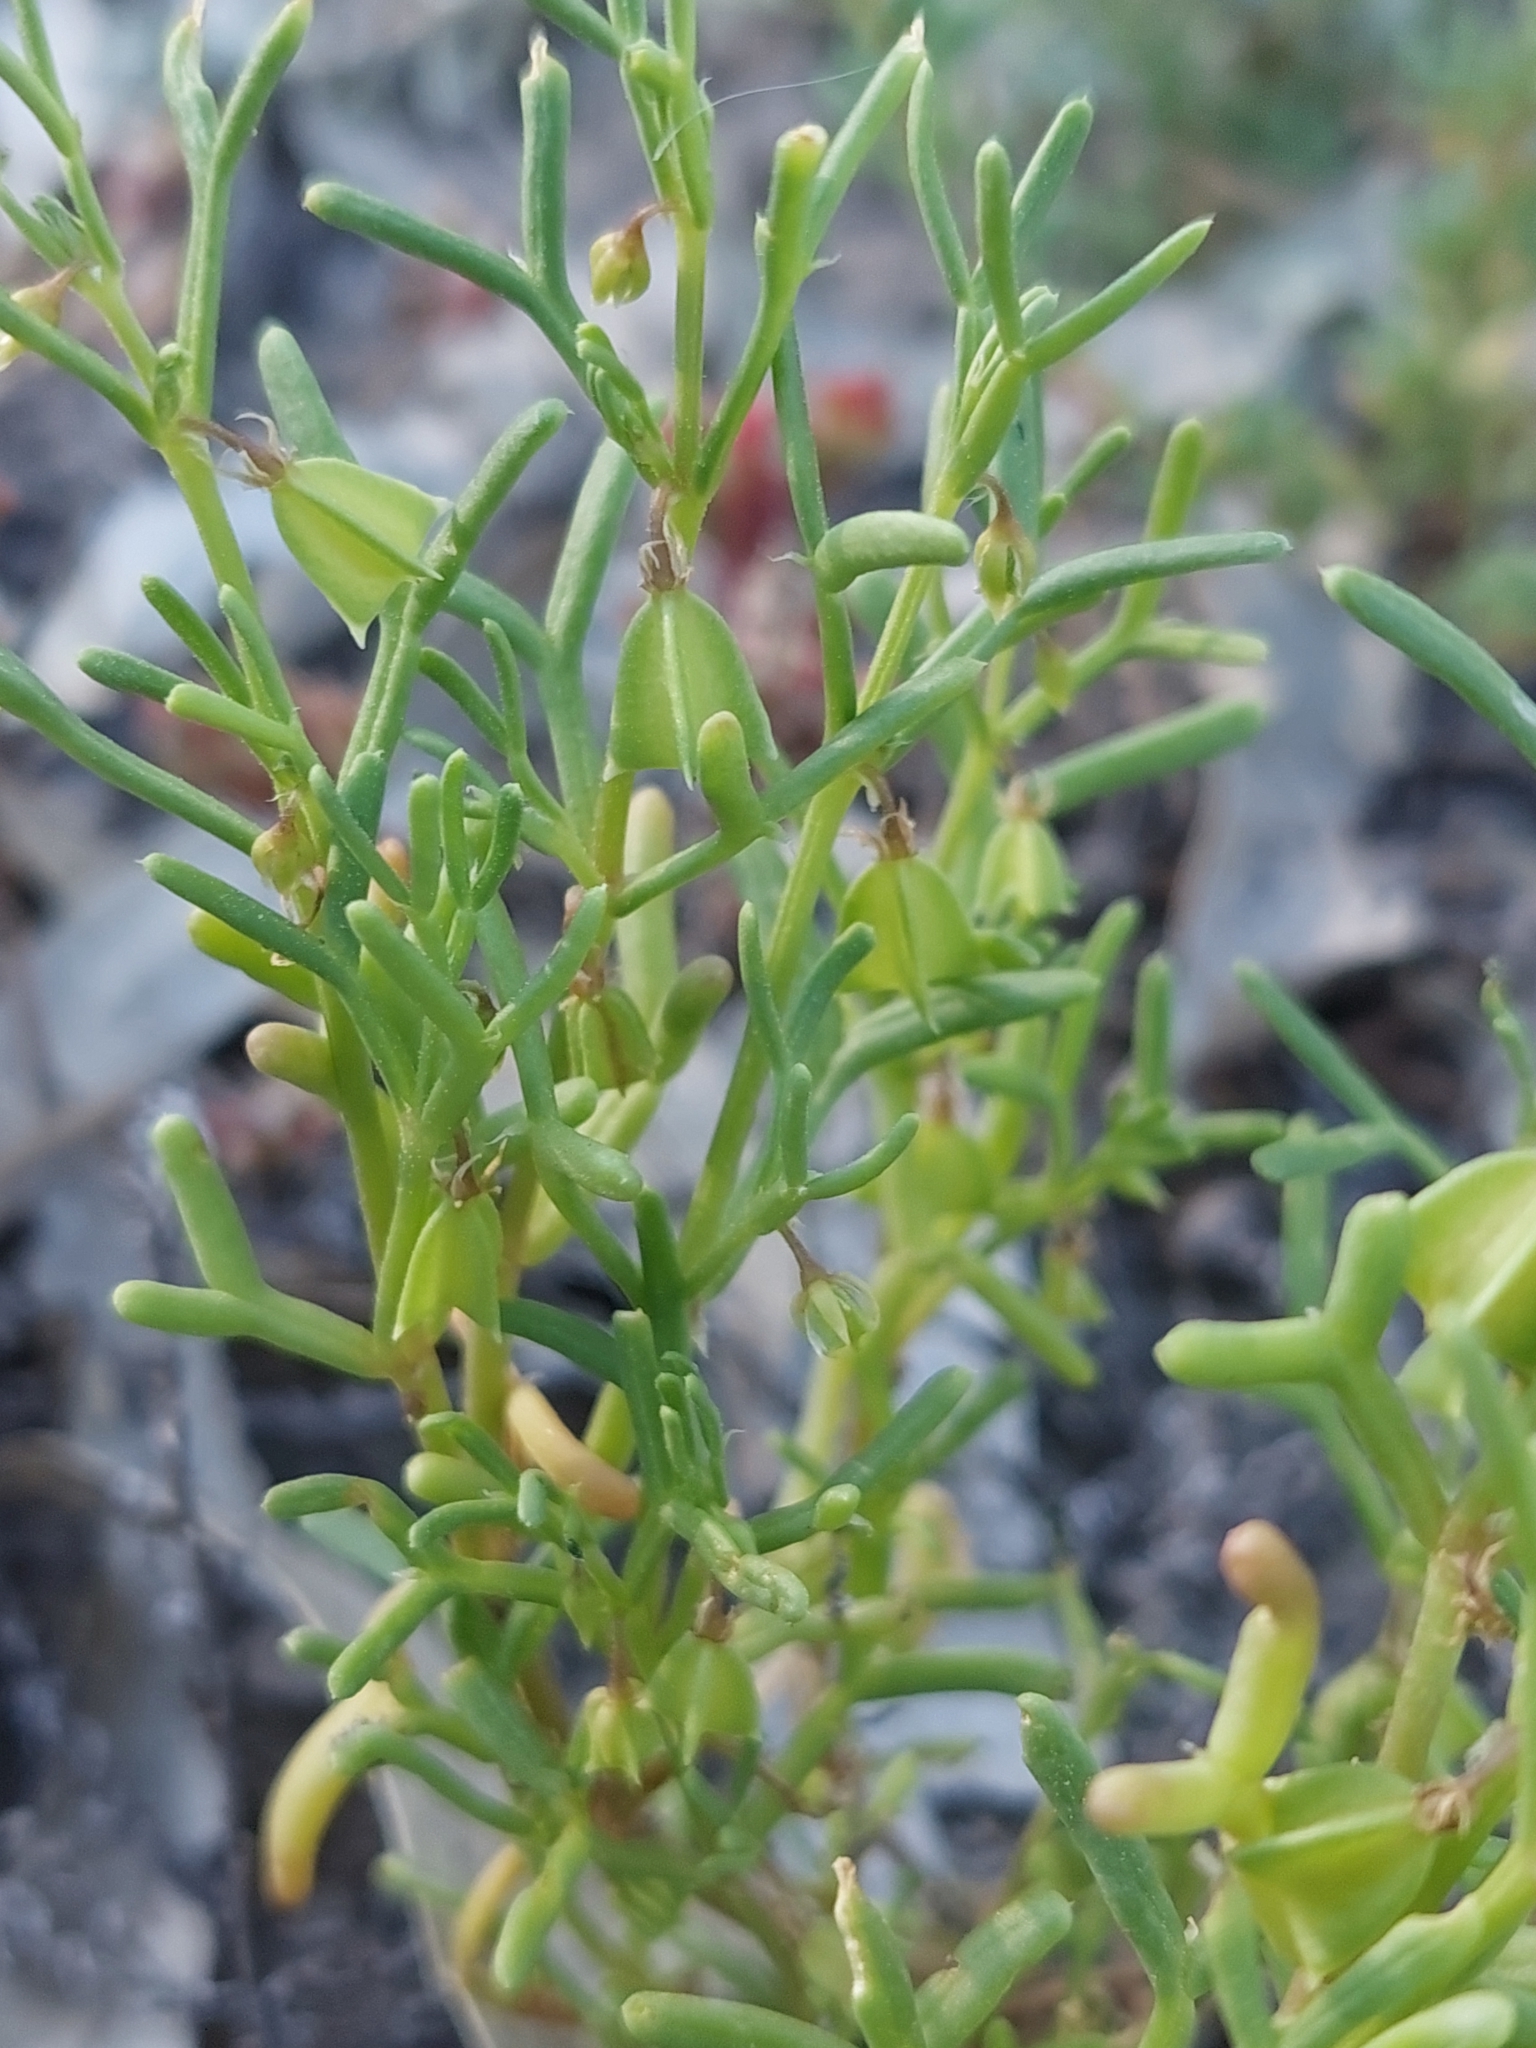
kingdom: Plantae
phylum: Tracheophyta
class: Magnoliopsida
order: Zygophyllales
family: Zygophyllaceae
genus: Roepera
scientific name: Roepera similis
